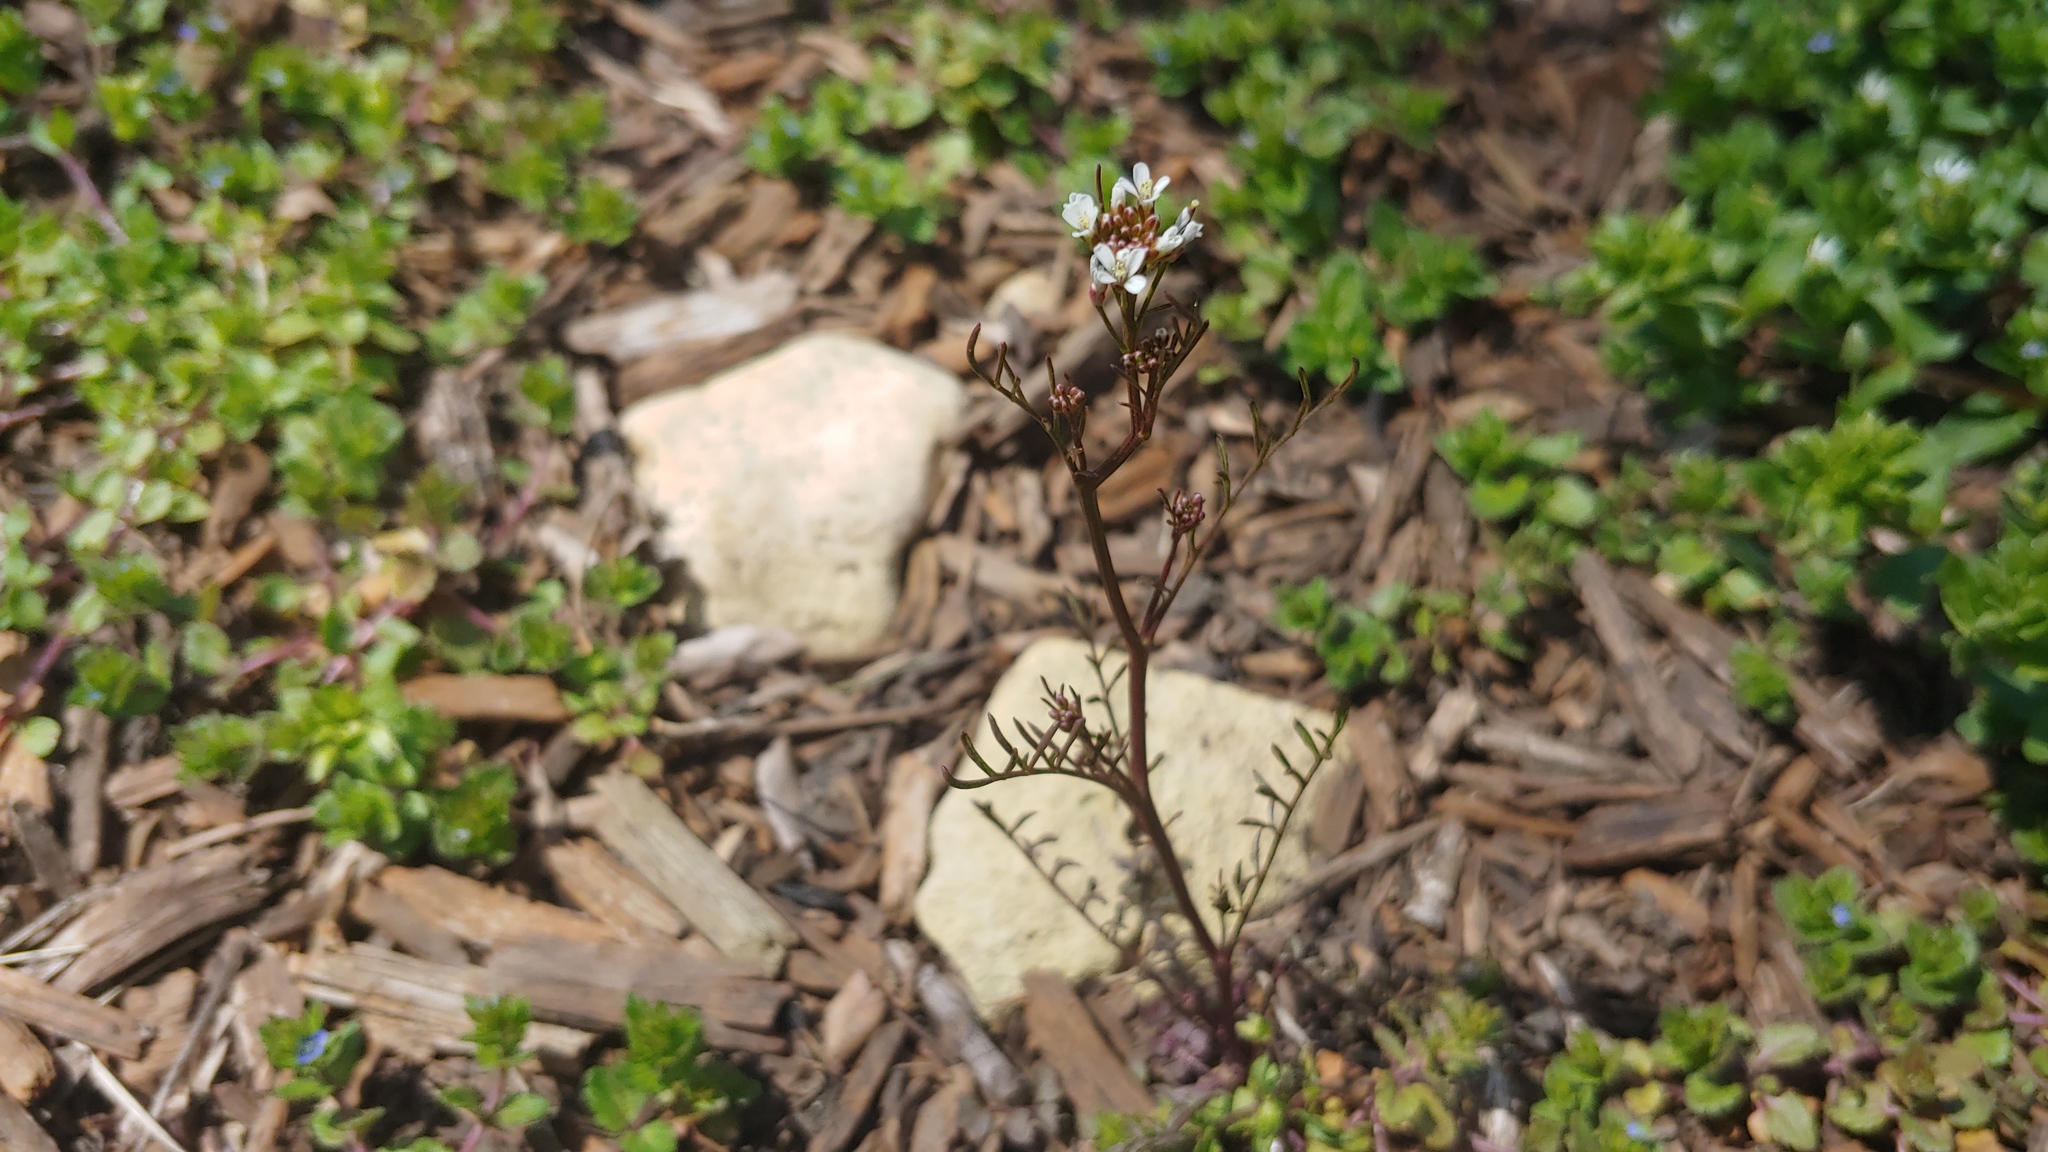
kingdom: Plantae
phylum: Tracheophyta
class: Magnoliopsida
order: Brassicales
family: Brassicaceae
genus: Cardamine
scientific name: Cardamine hirsuta
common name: Hairy bittercress
